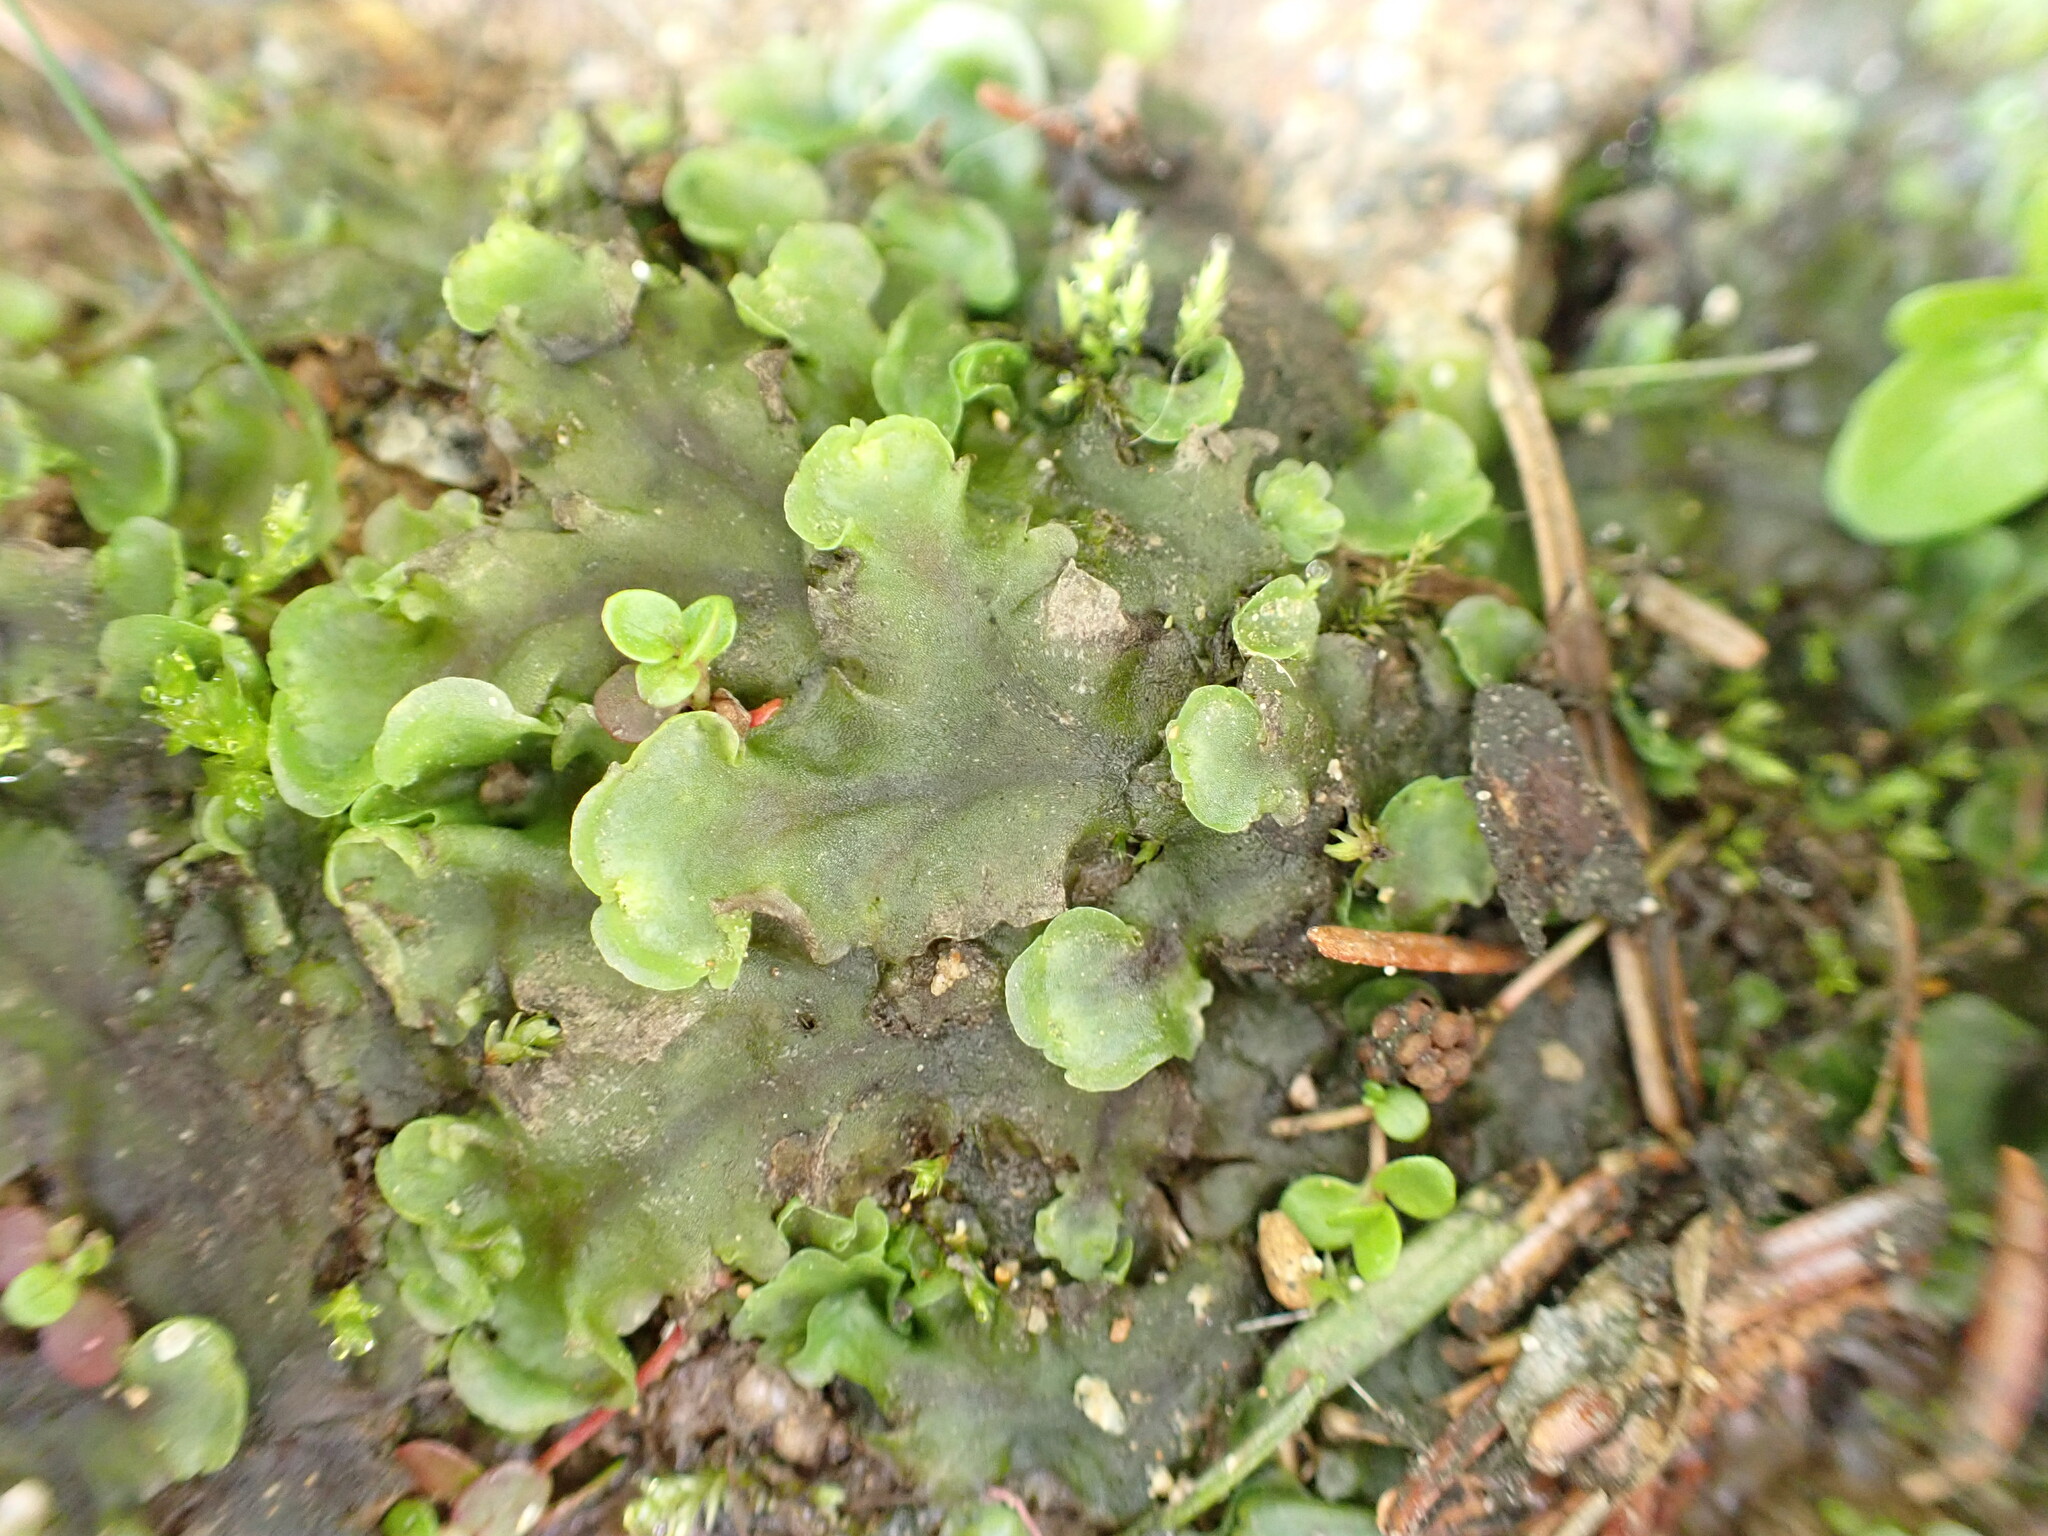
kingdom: Plantae
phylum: Marchantiophyta
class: Jungermanniopsida
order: Pelliales
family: Pelliaceae
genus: Pellia
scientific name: Pellia neesiana
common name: Nees  pellia
